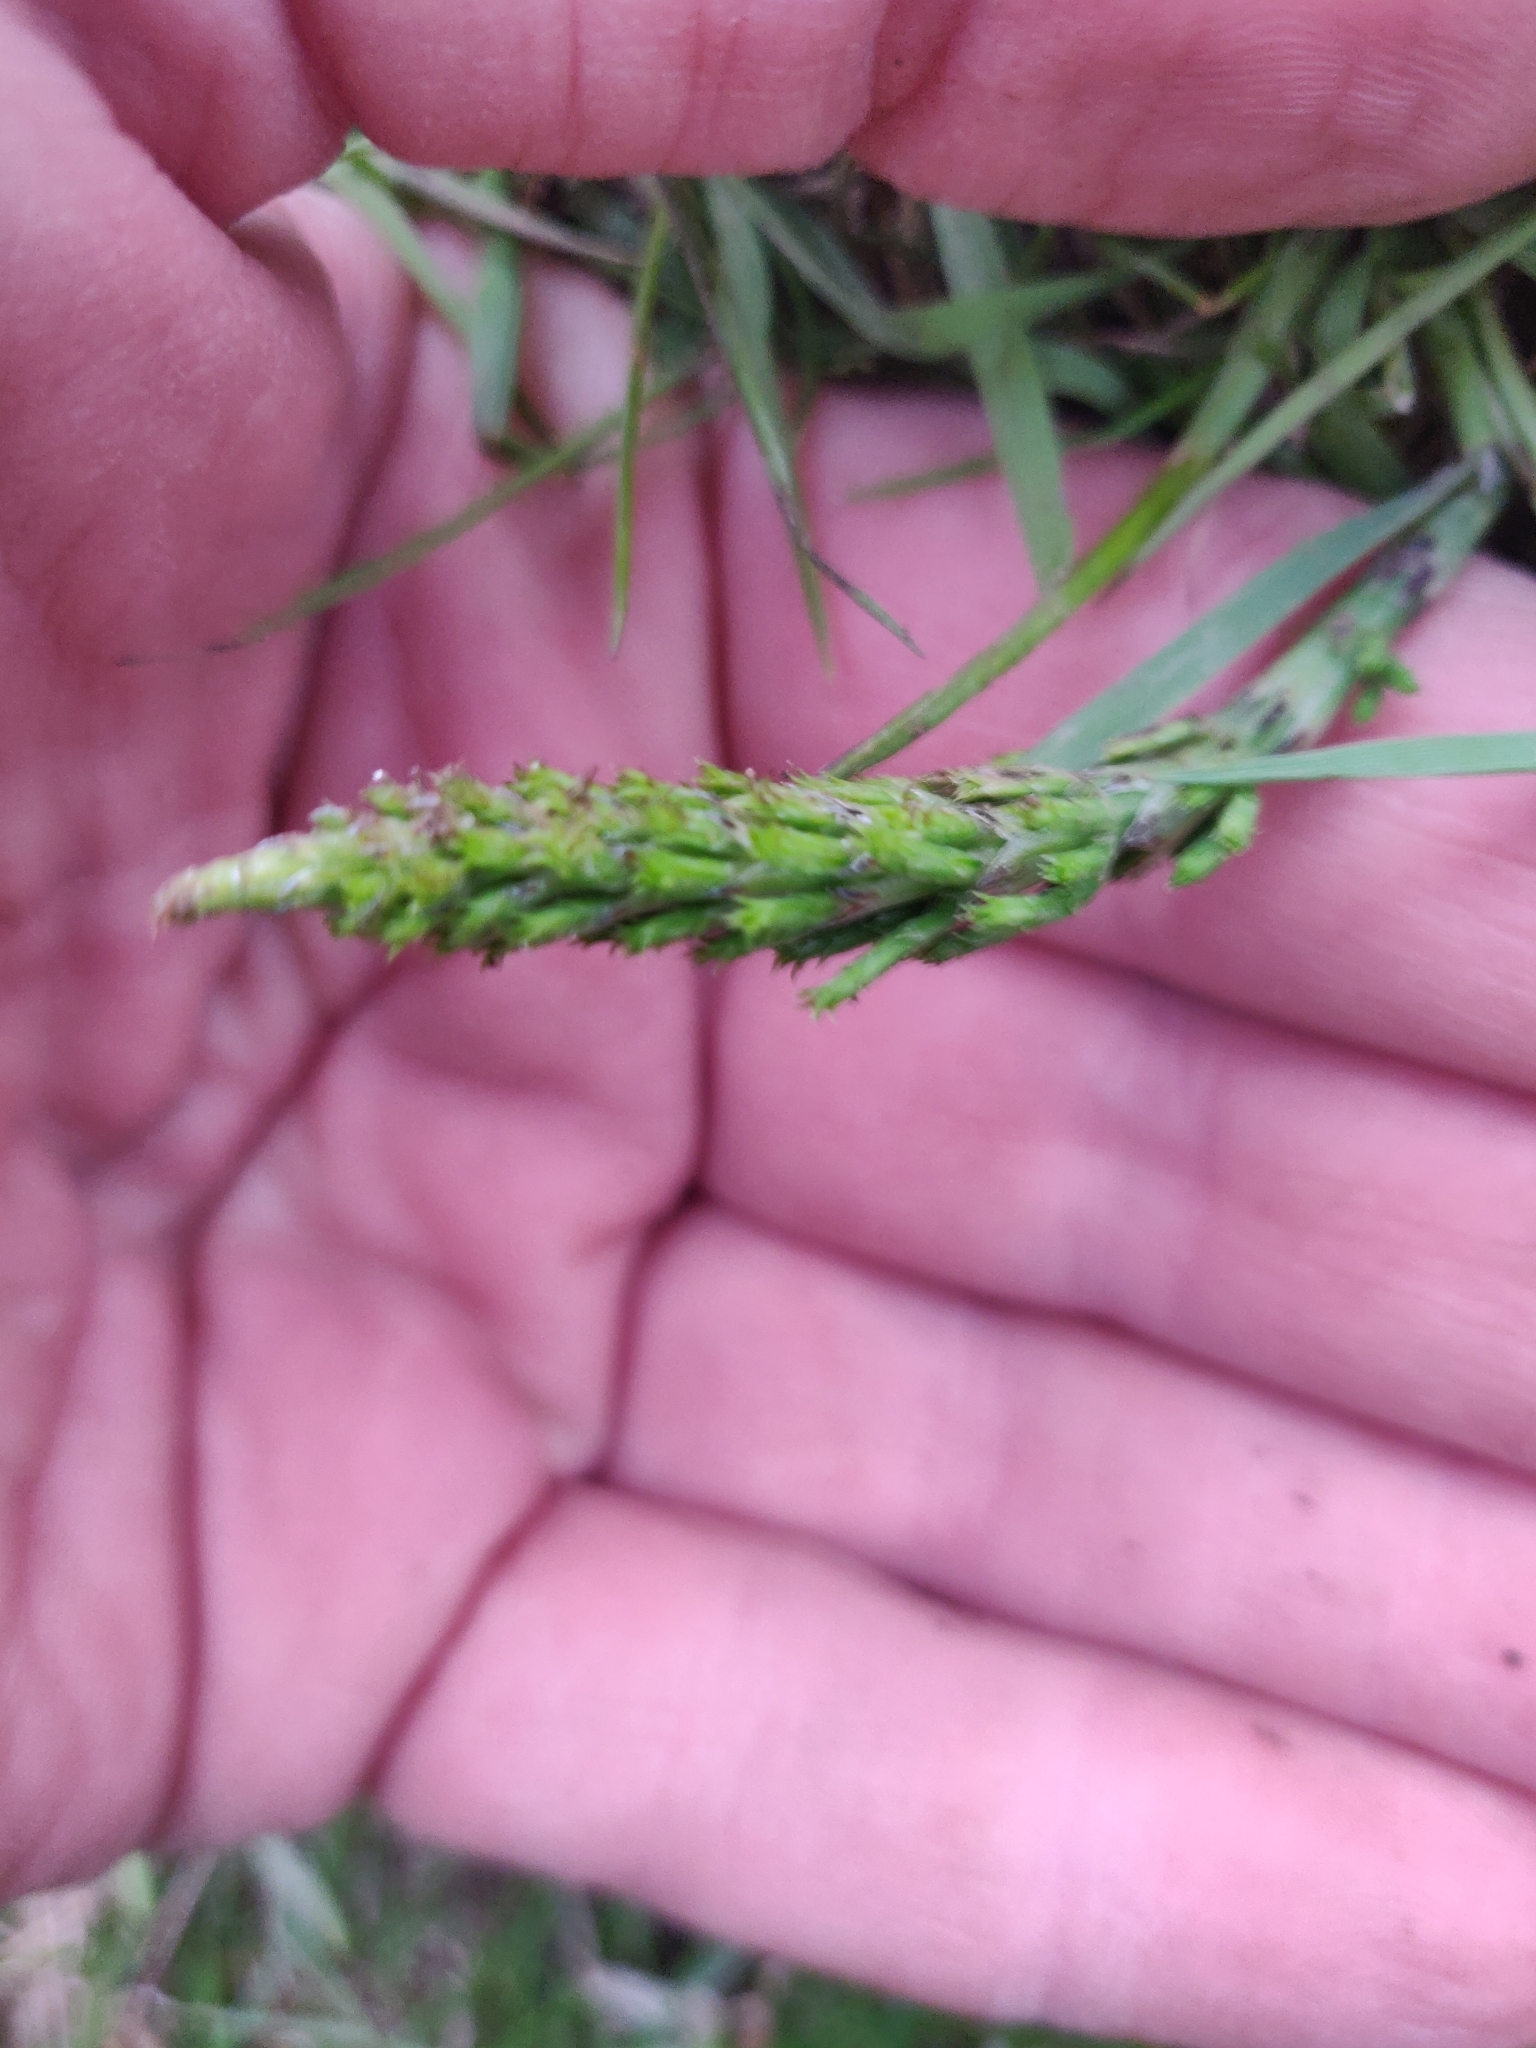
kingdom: Plantae
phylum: Tracheophyta
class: Polypodiopsida
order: Equisetales
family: Equisetaceae
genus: Equisetum
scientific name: Equisetum arvense
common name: Field horsetail
